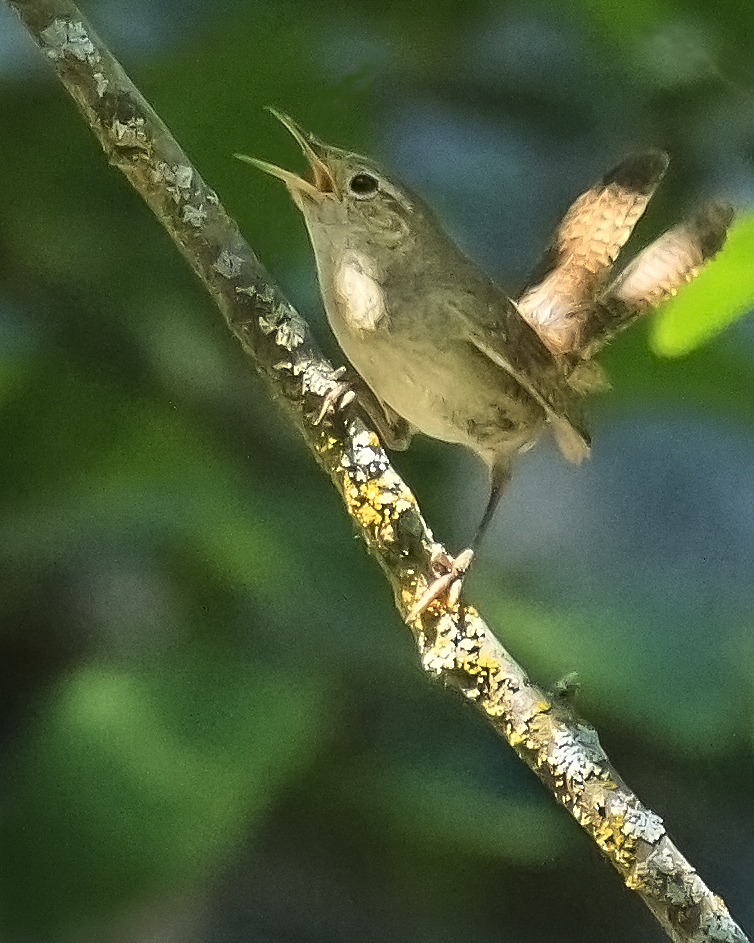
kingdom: Animalia
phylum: Chordata
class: Aves
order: Passeriformes
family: Troglodytidae
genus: Troglodytes
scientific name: Troglodytes aedon
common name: House wren
